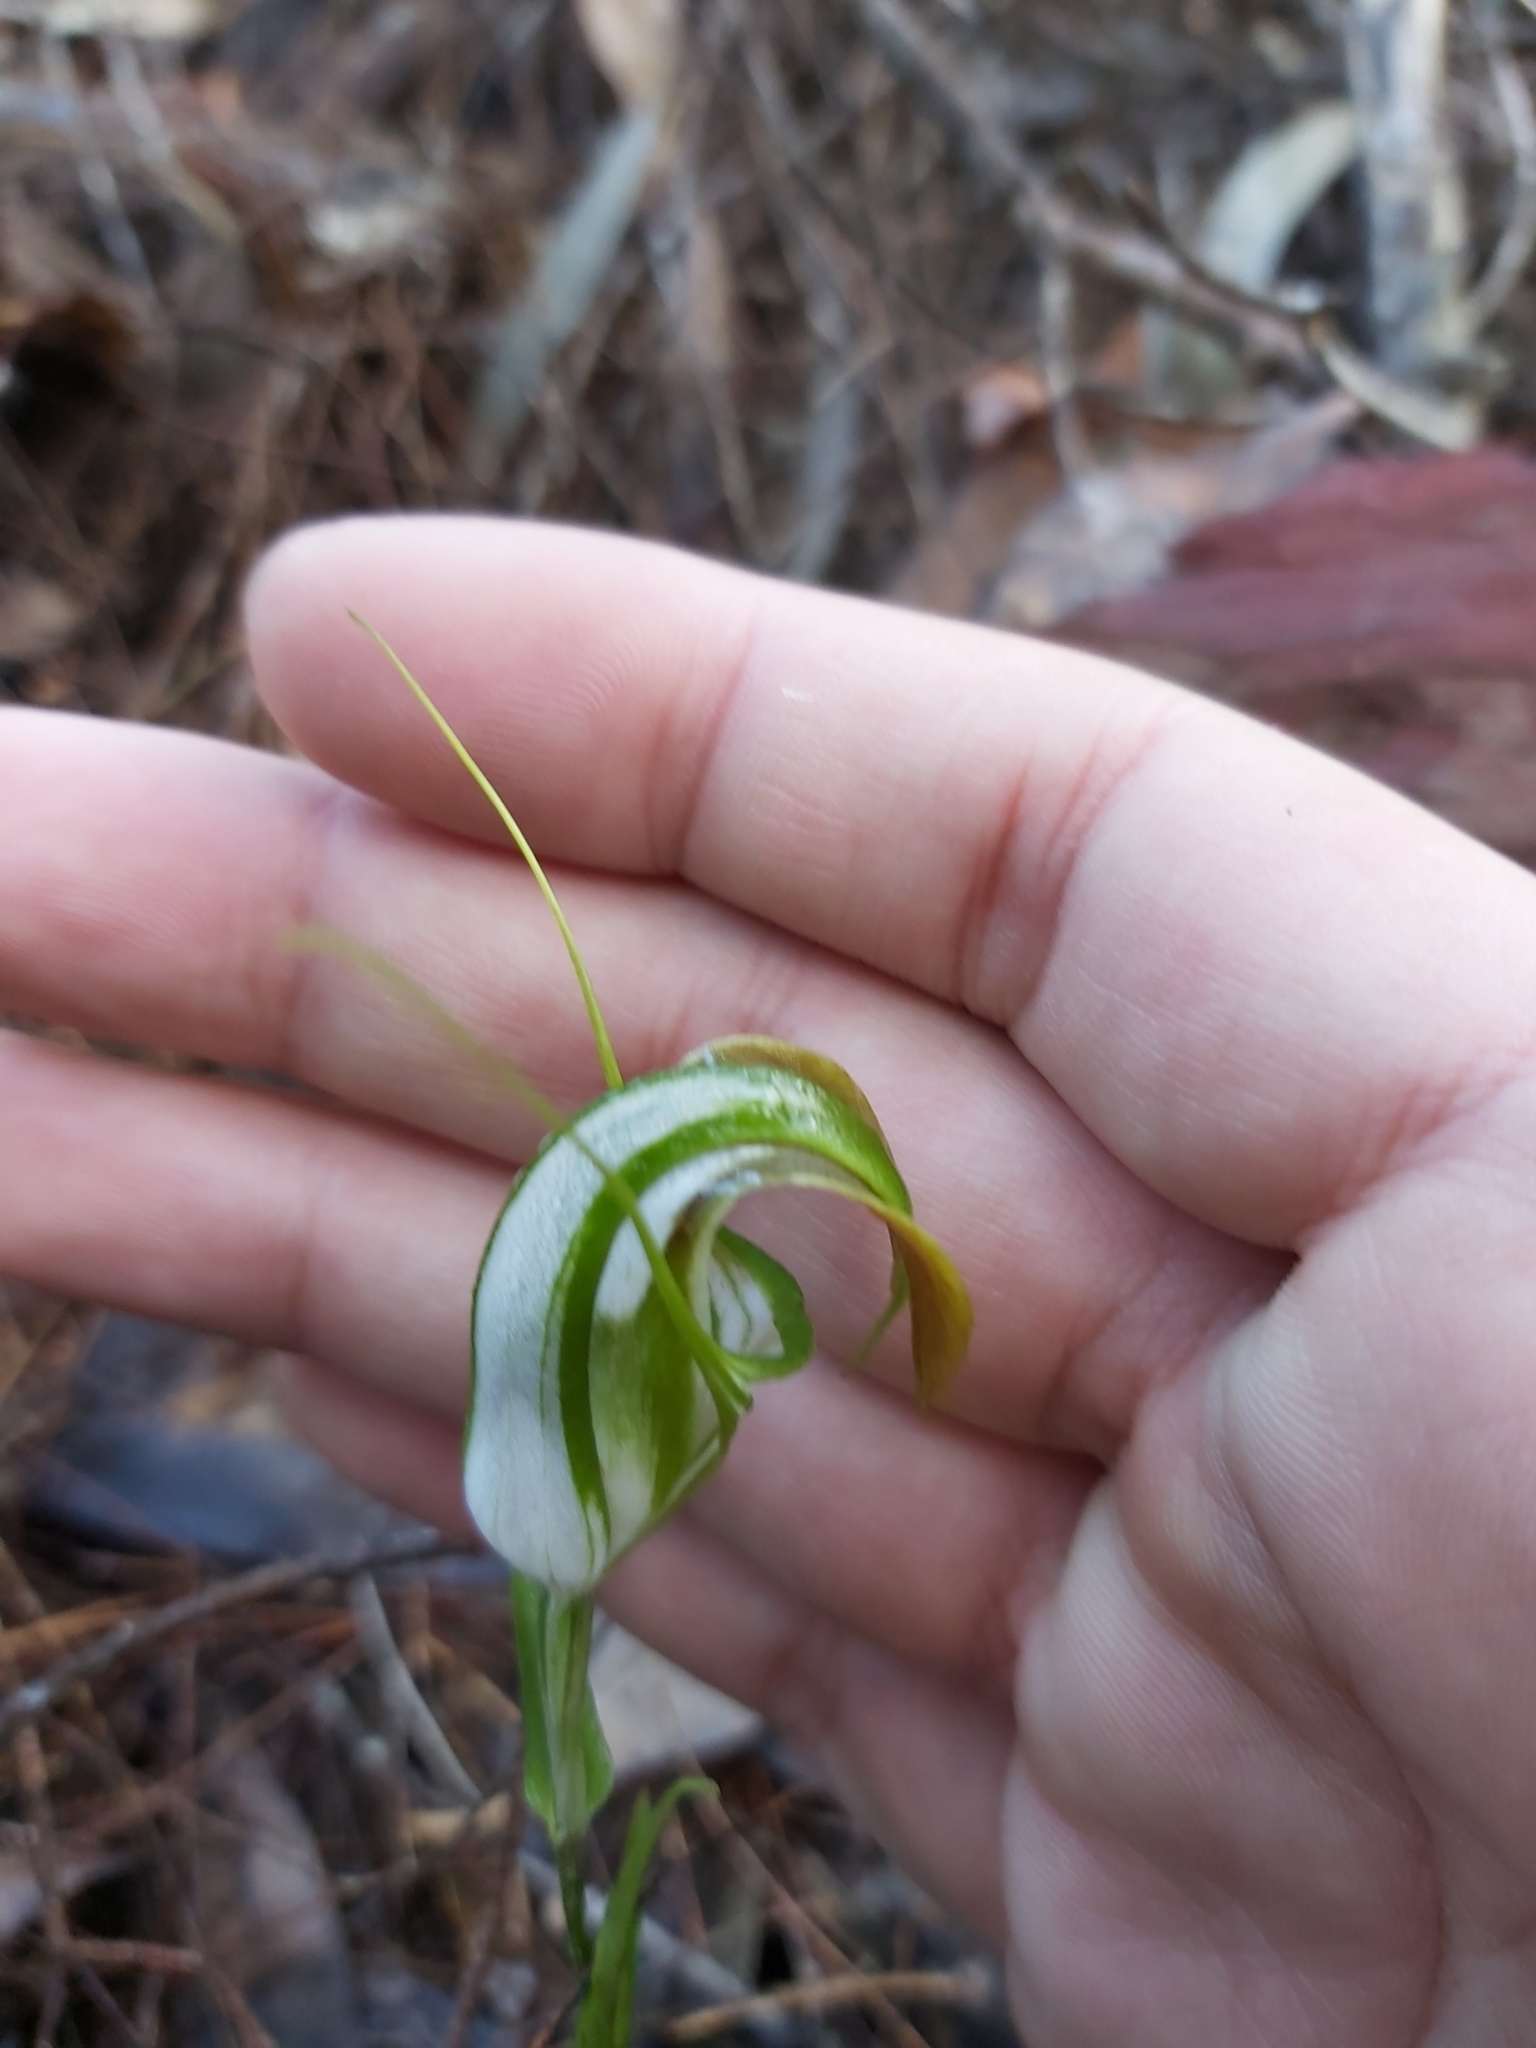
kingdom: Plantae
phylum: Tracheophyta
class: Liliopsida
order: Asparagales
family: Orchidaceae
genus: Pterostylis
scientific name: Pterostylis grandiflora
